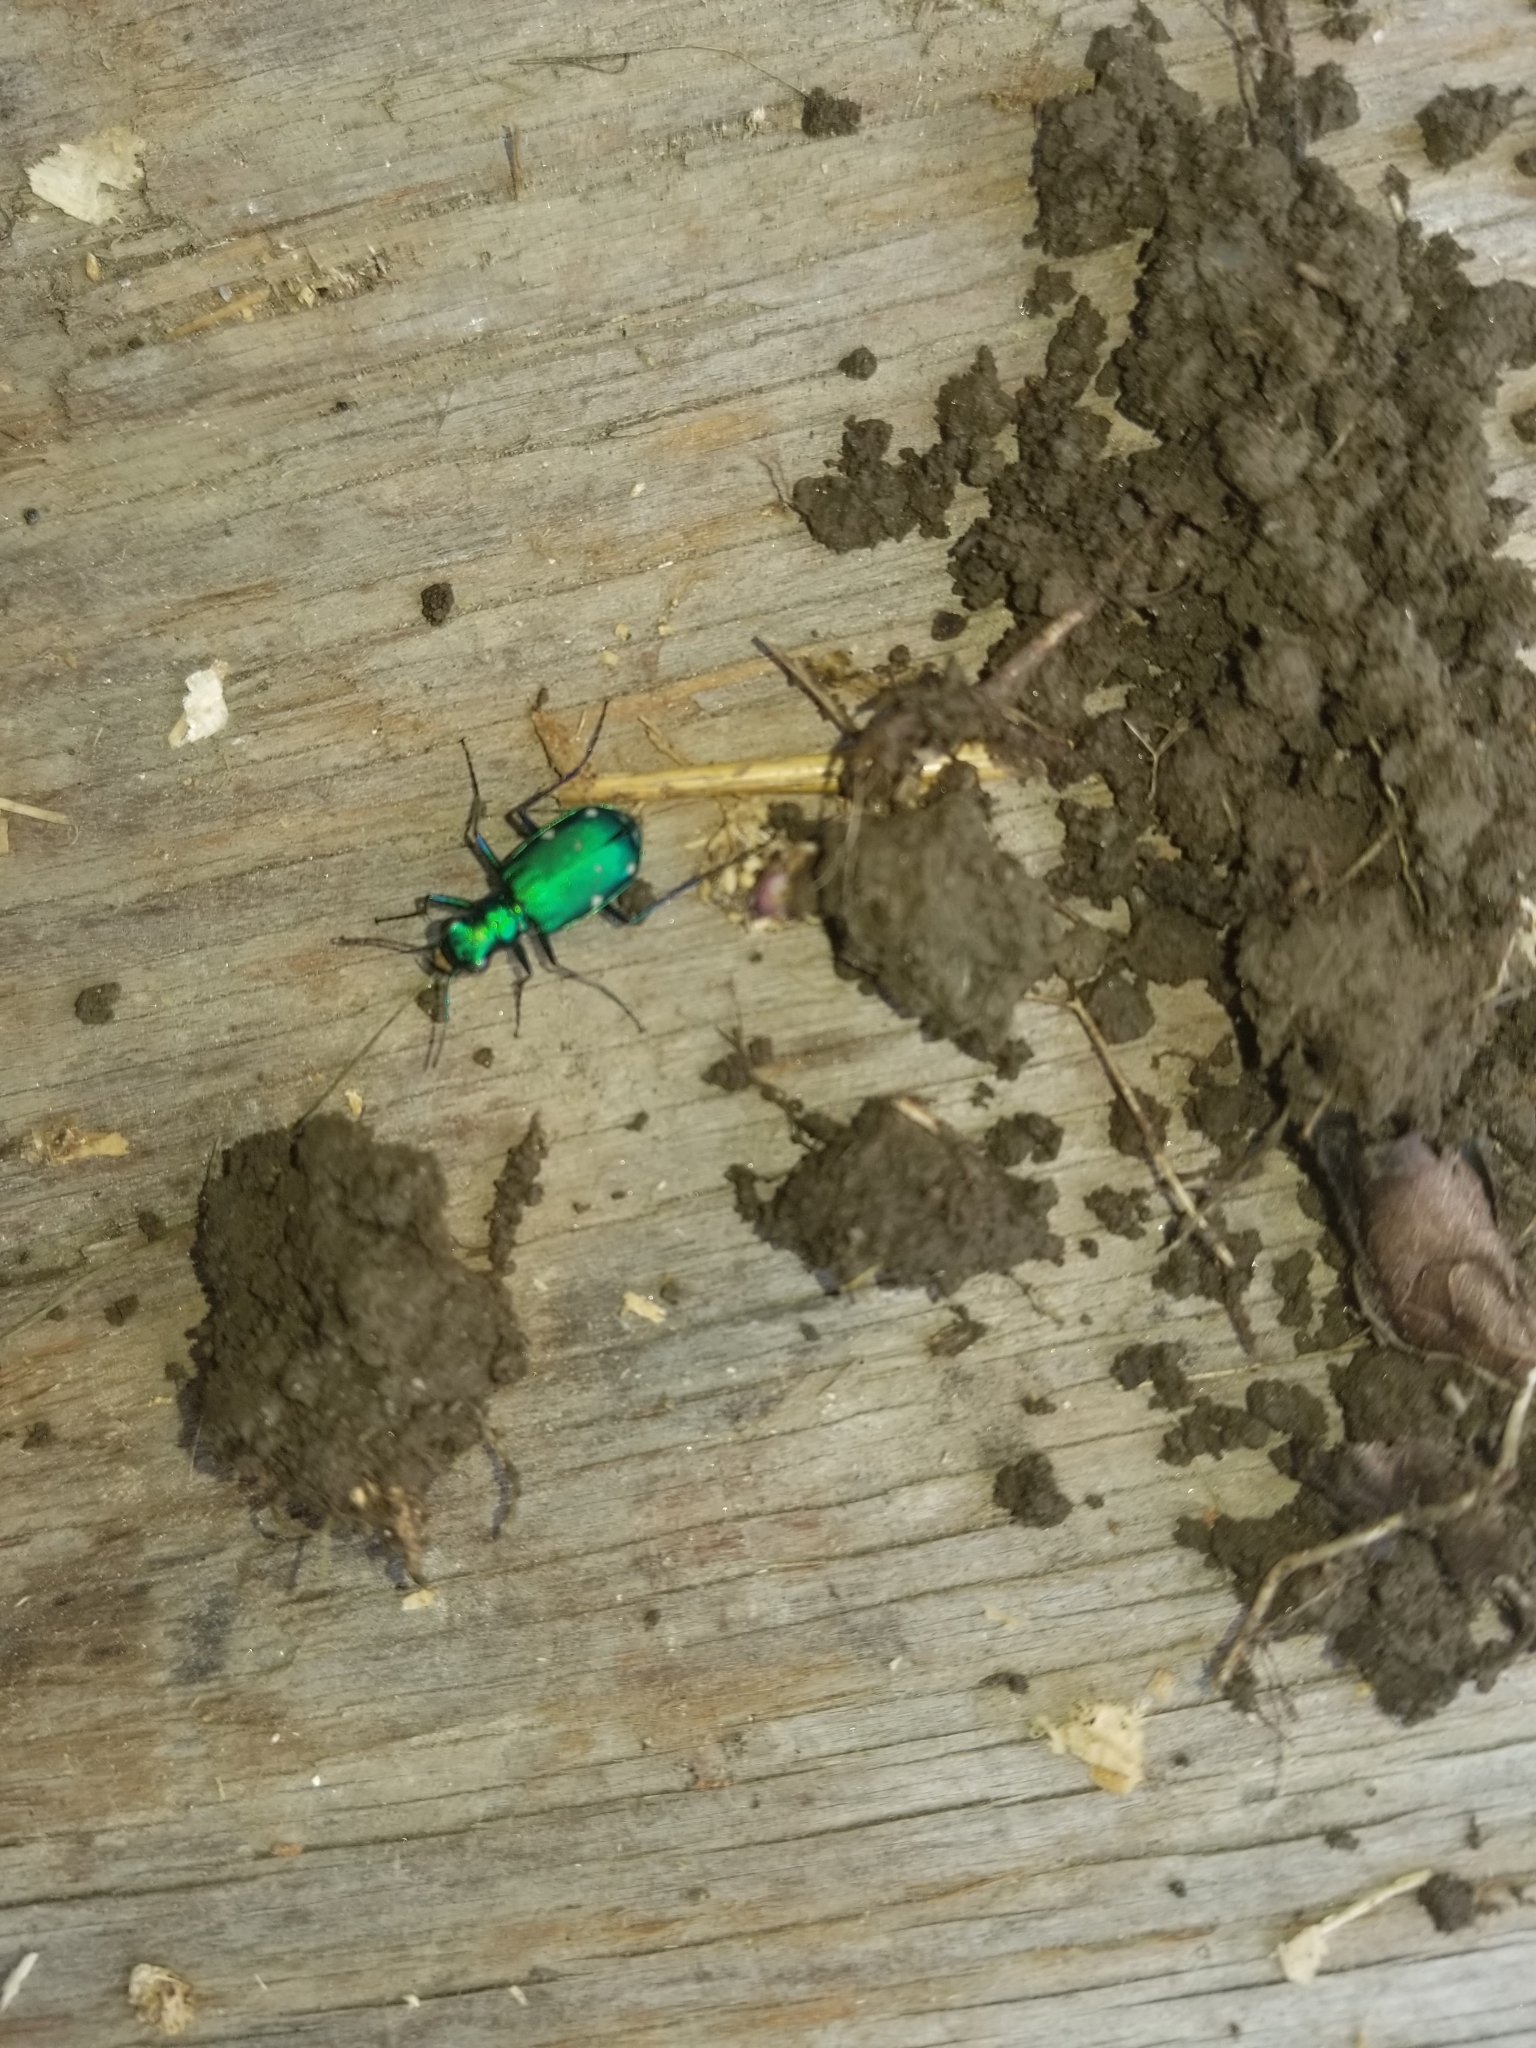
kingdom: Animalia
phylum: Arthropoda
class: Insecta
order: Coleoptera
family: Carabidae
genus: Cicindela
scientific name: Cicindela sexguttata
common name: Six-spotted tiger beetle
